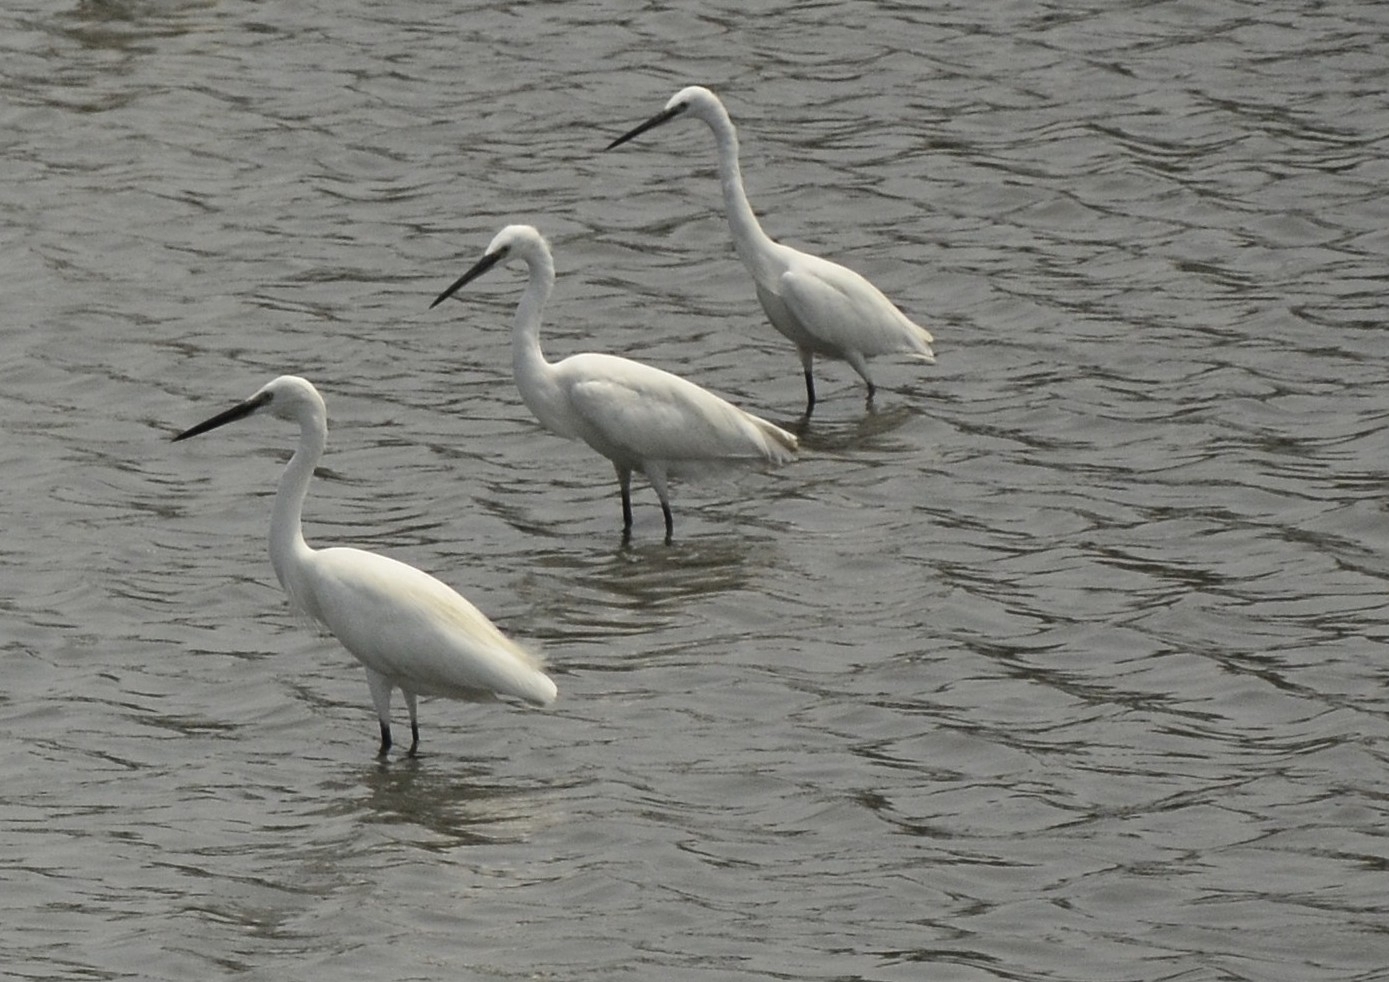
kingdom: Animalia
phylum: Chordata
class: Aves
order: Pelecaniformes
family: Ardeidae
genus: Egretta
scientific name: Egretta garzetta
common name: Little egret
